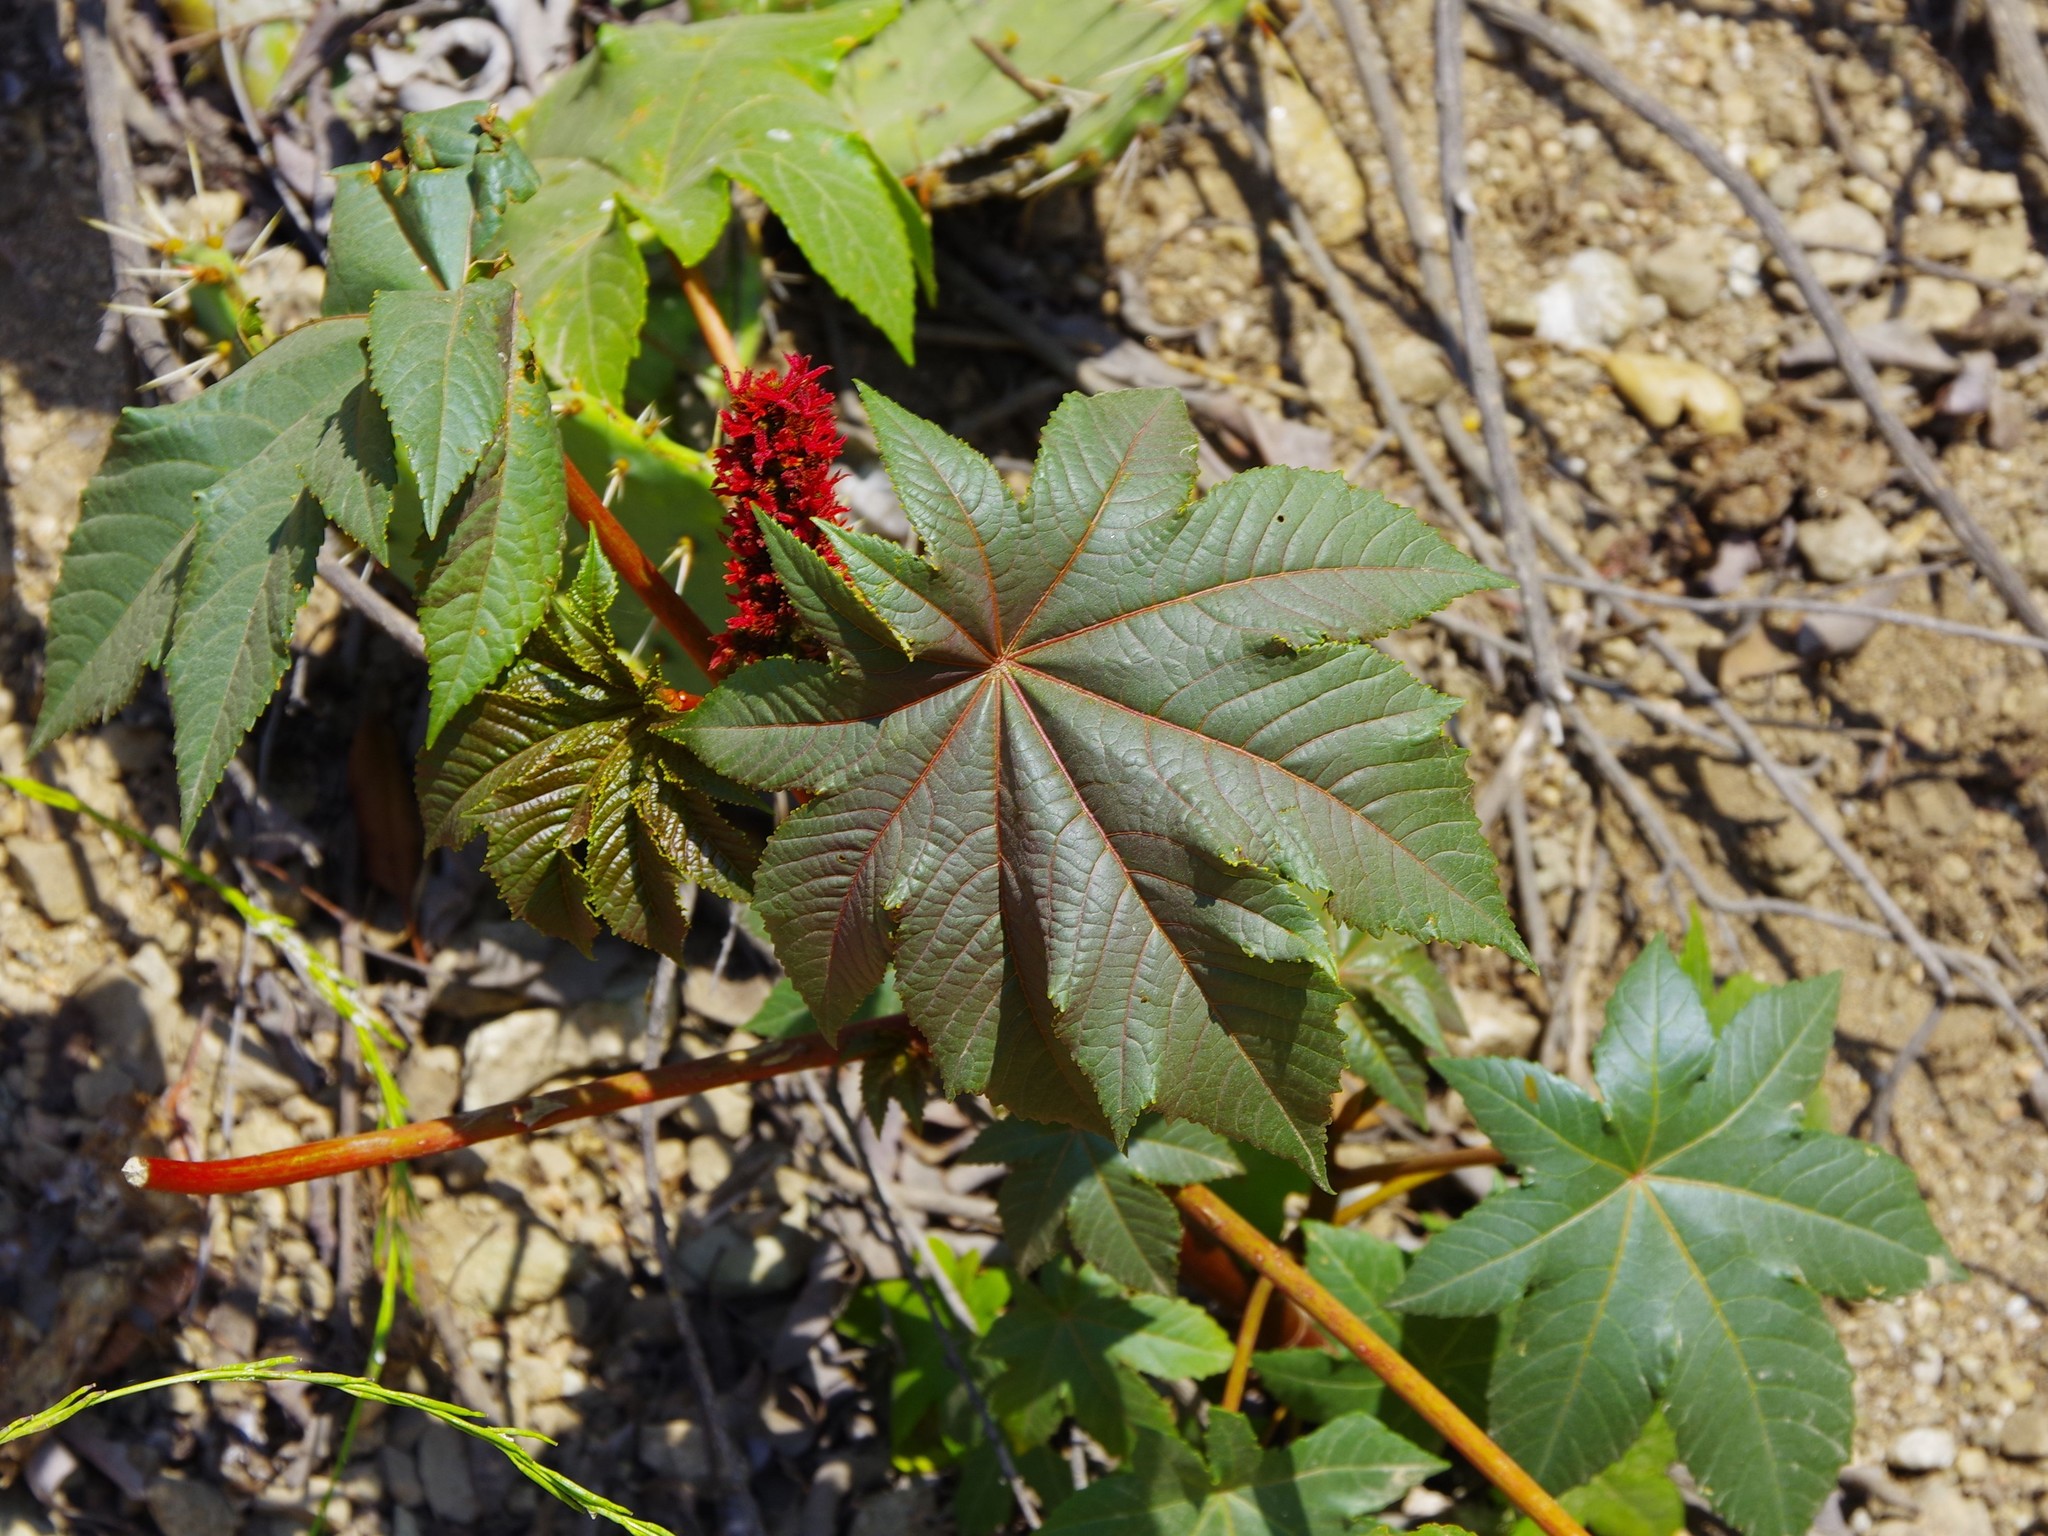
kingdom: Plantae
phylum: Tracheophyta
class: Magnoliopsida
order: Malpighiales
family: Euphorbiaceae
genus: Ricinus
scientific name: Ricinus communis
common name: Castor-oil-plant
